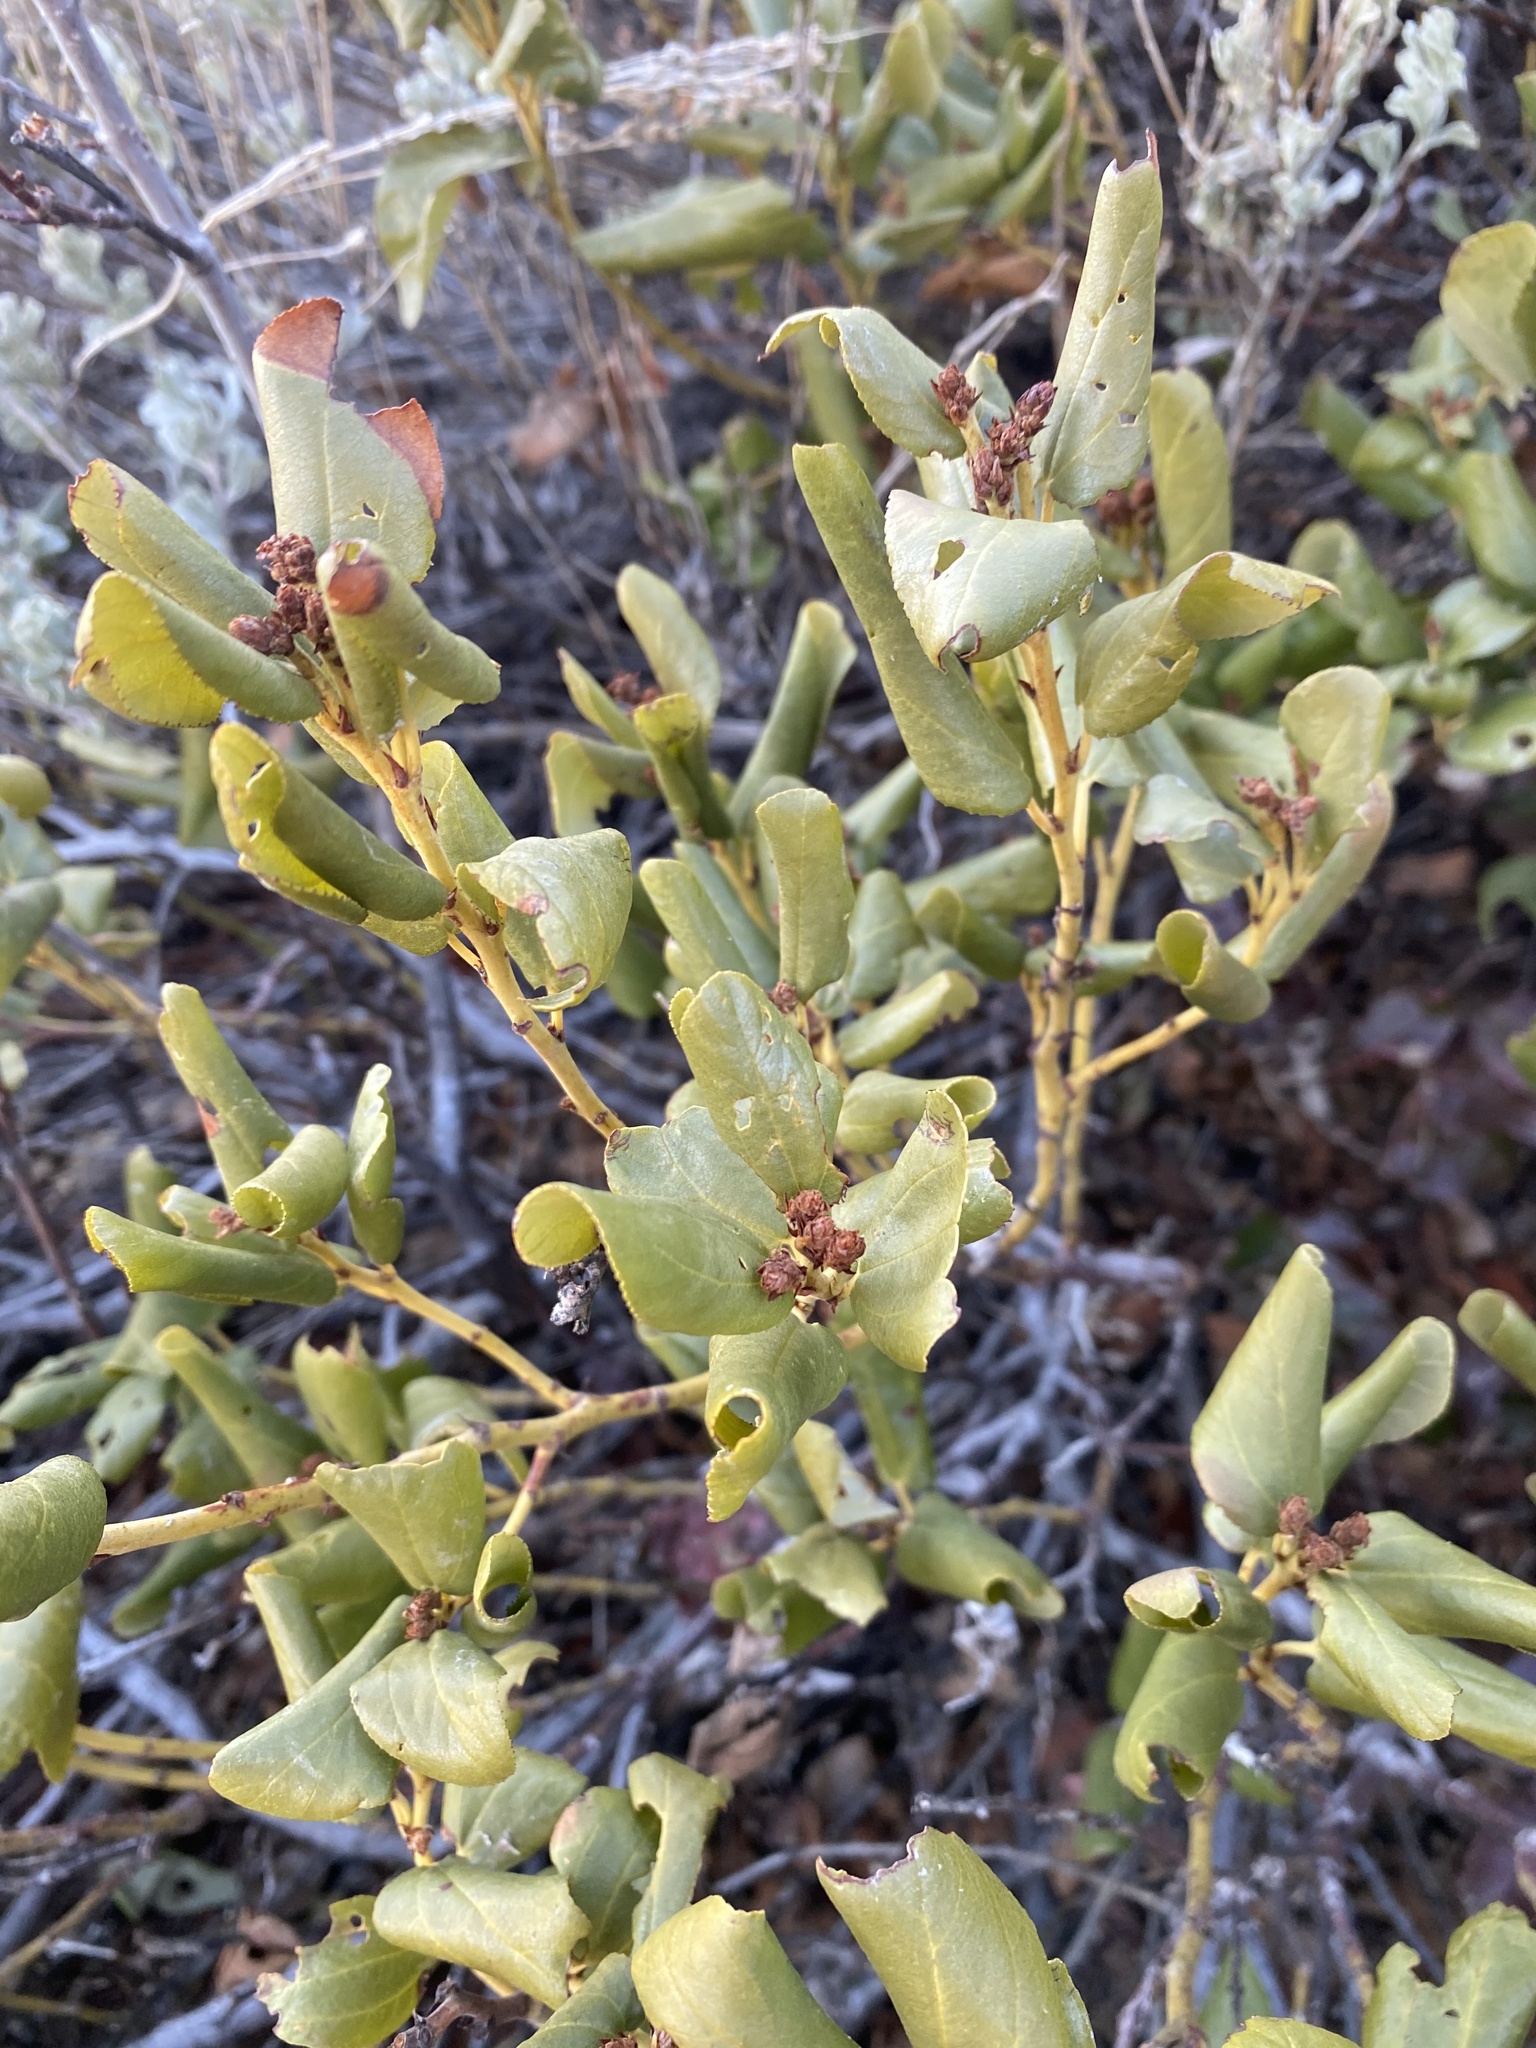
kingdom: Plantae
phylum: Tracheophyta
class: Magnoliopsida
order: Rosales
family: Rhamnaceae
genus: Ceanothus
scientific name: Ceanothus velutinus
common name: Snowbrush
